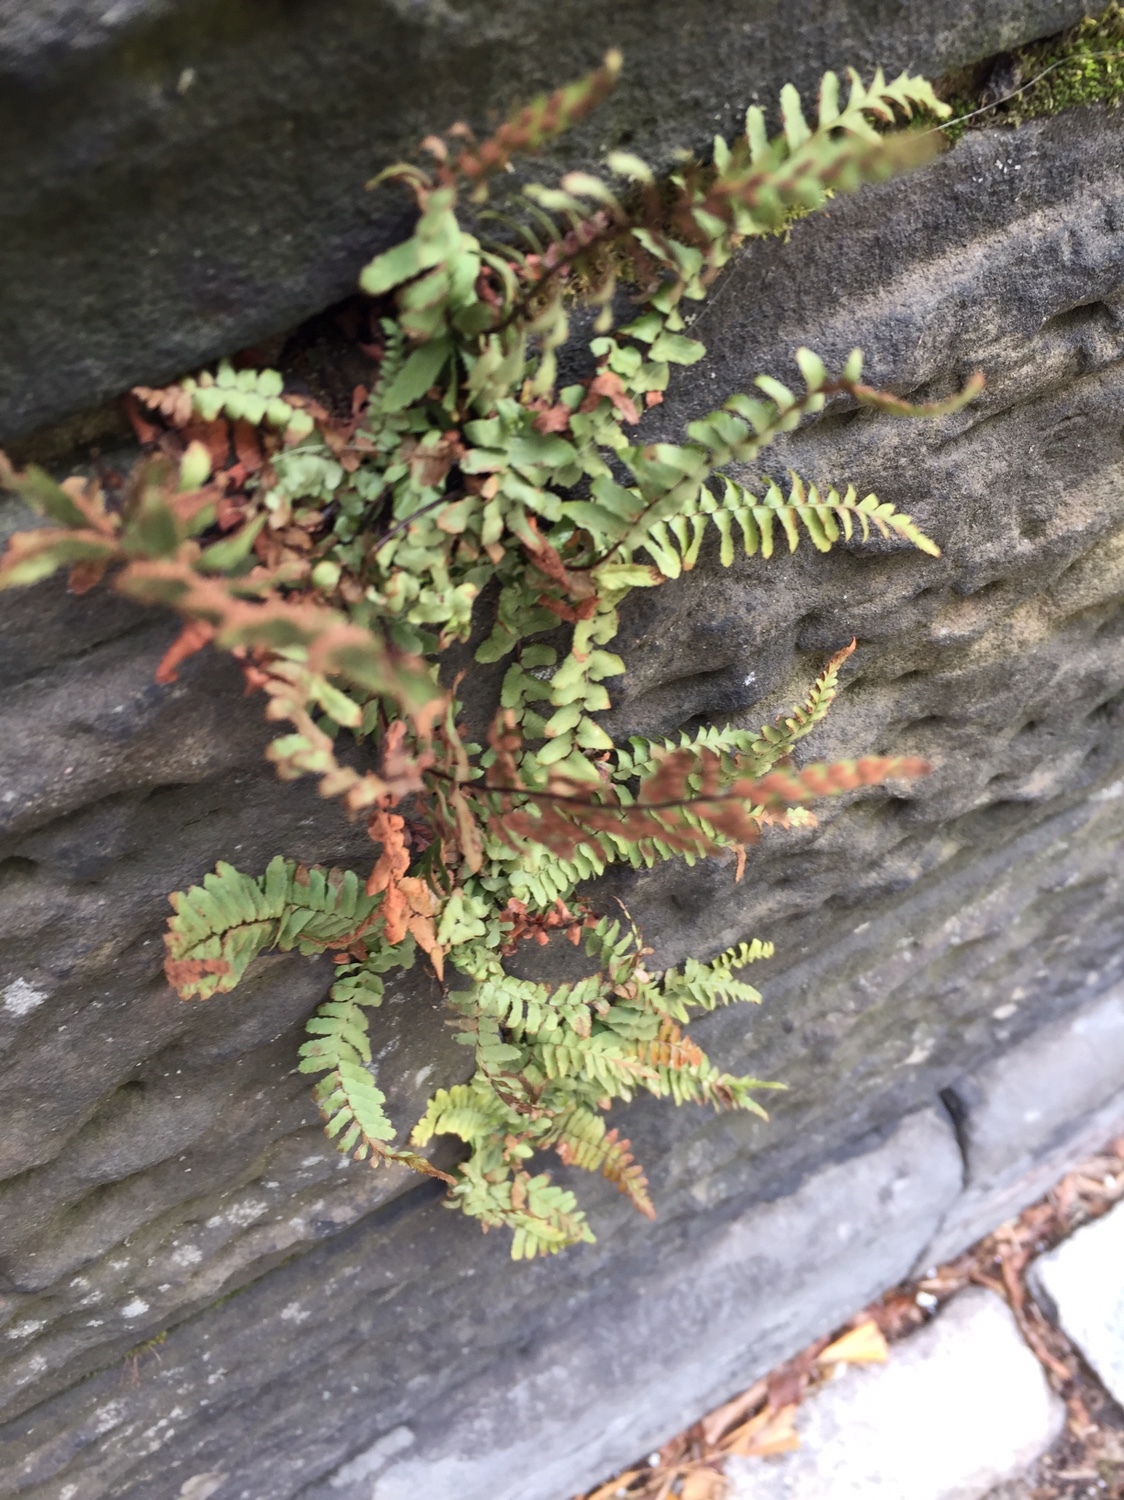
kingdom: Plantae
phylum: Tracheophyta
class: Polypodiopsida
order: Polypodiales
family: Aspleniaceae
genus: Asplenium
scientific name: Asplenium platyneuron
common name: Ebony spleenwort
